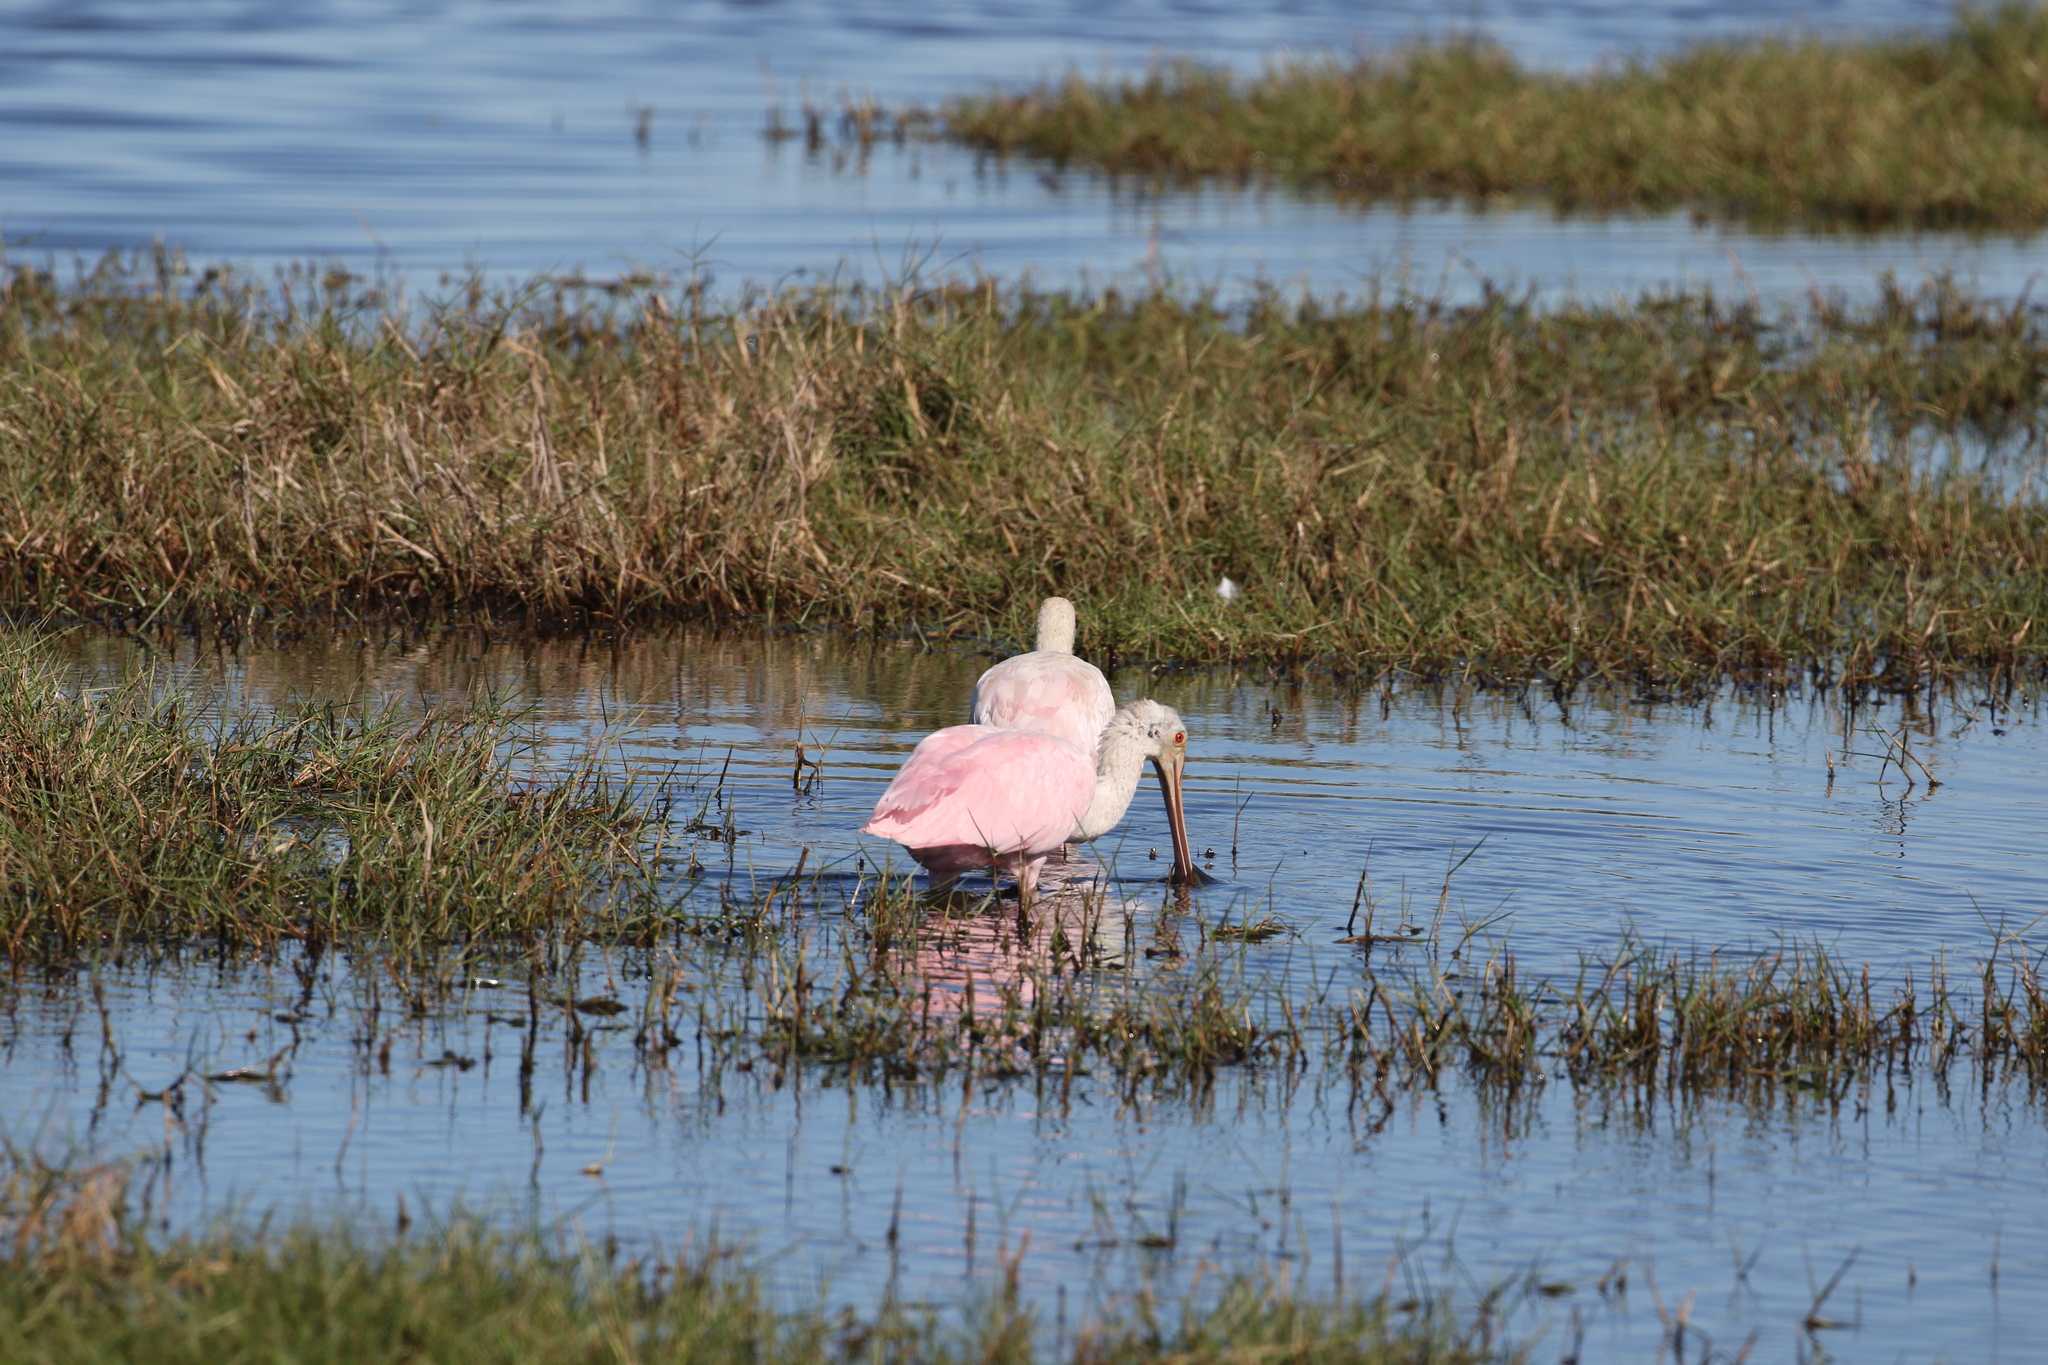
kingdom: Animalia
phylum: Chordata
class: Aves
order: Pelecaniformes
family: Threskiornithidae
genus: Platalea
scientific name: Platalea ajaja
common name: Roseate spoonbill
